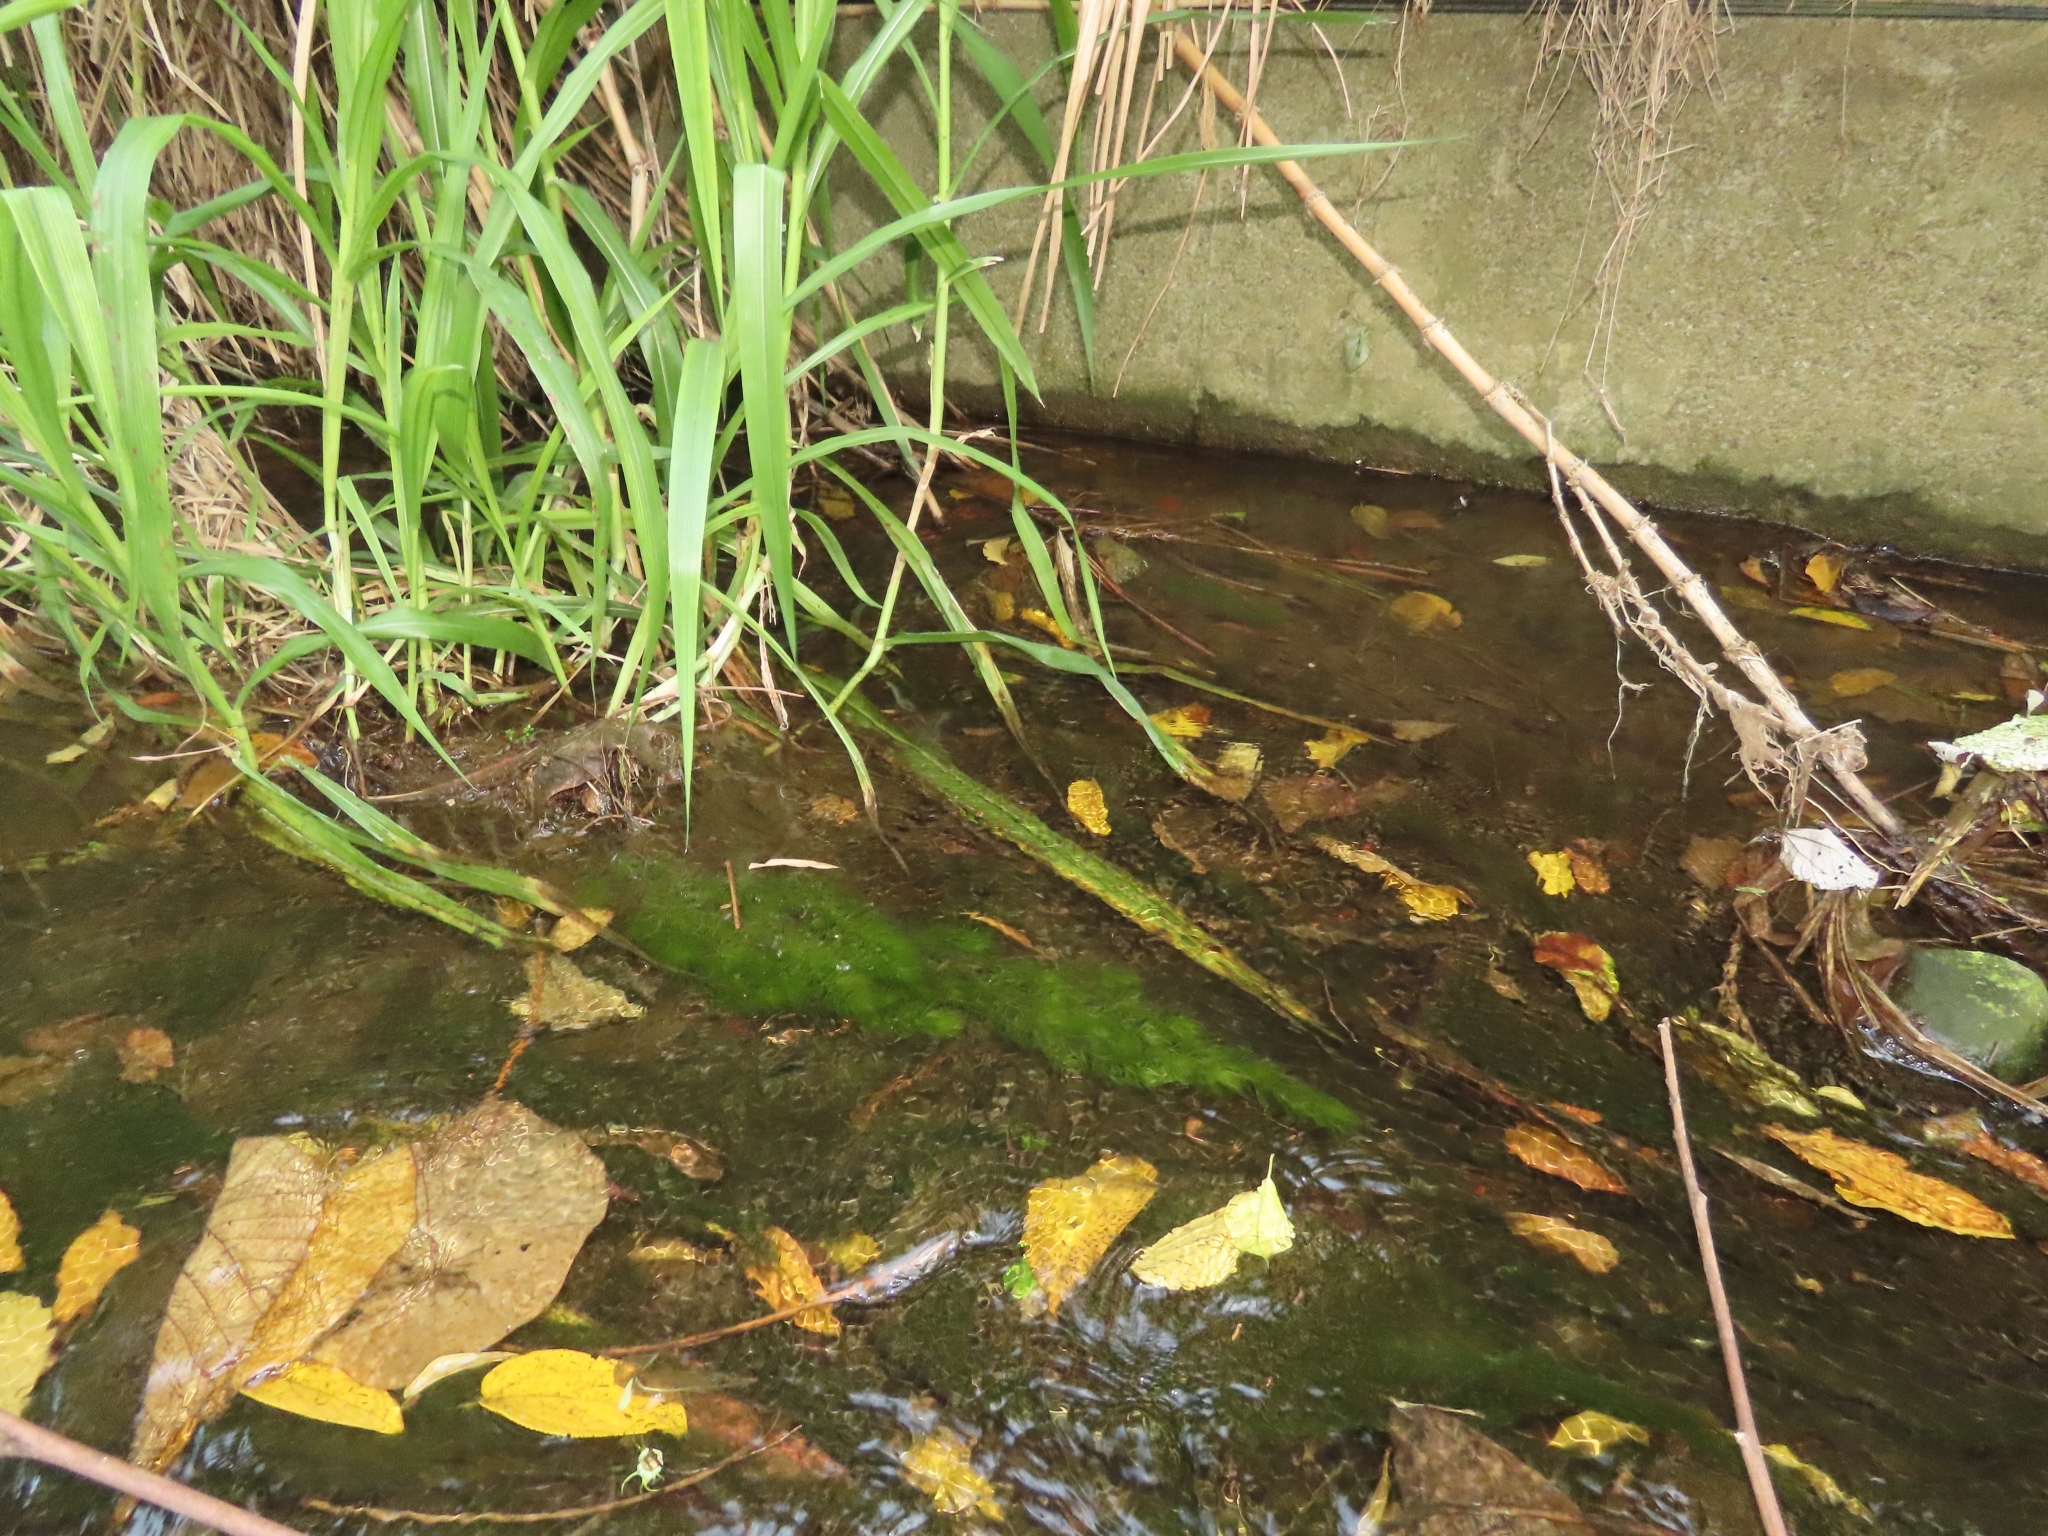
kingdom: Plantae
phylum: Tracheophyta
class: Magnoliopsida
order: Ceratophyllales
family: Ceratophyllaceae
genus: Ceratophyllum
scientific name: Ceratophyllum demersum
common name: Rigid hornwort
